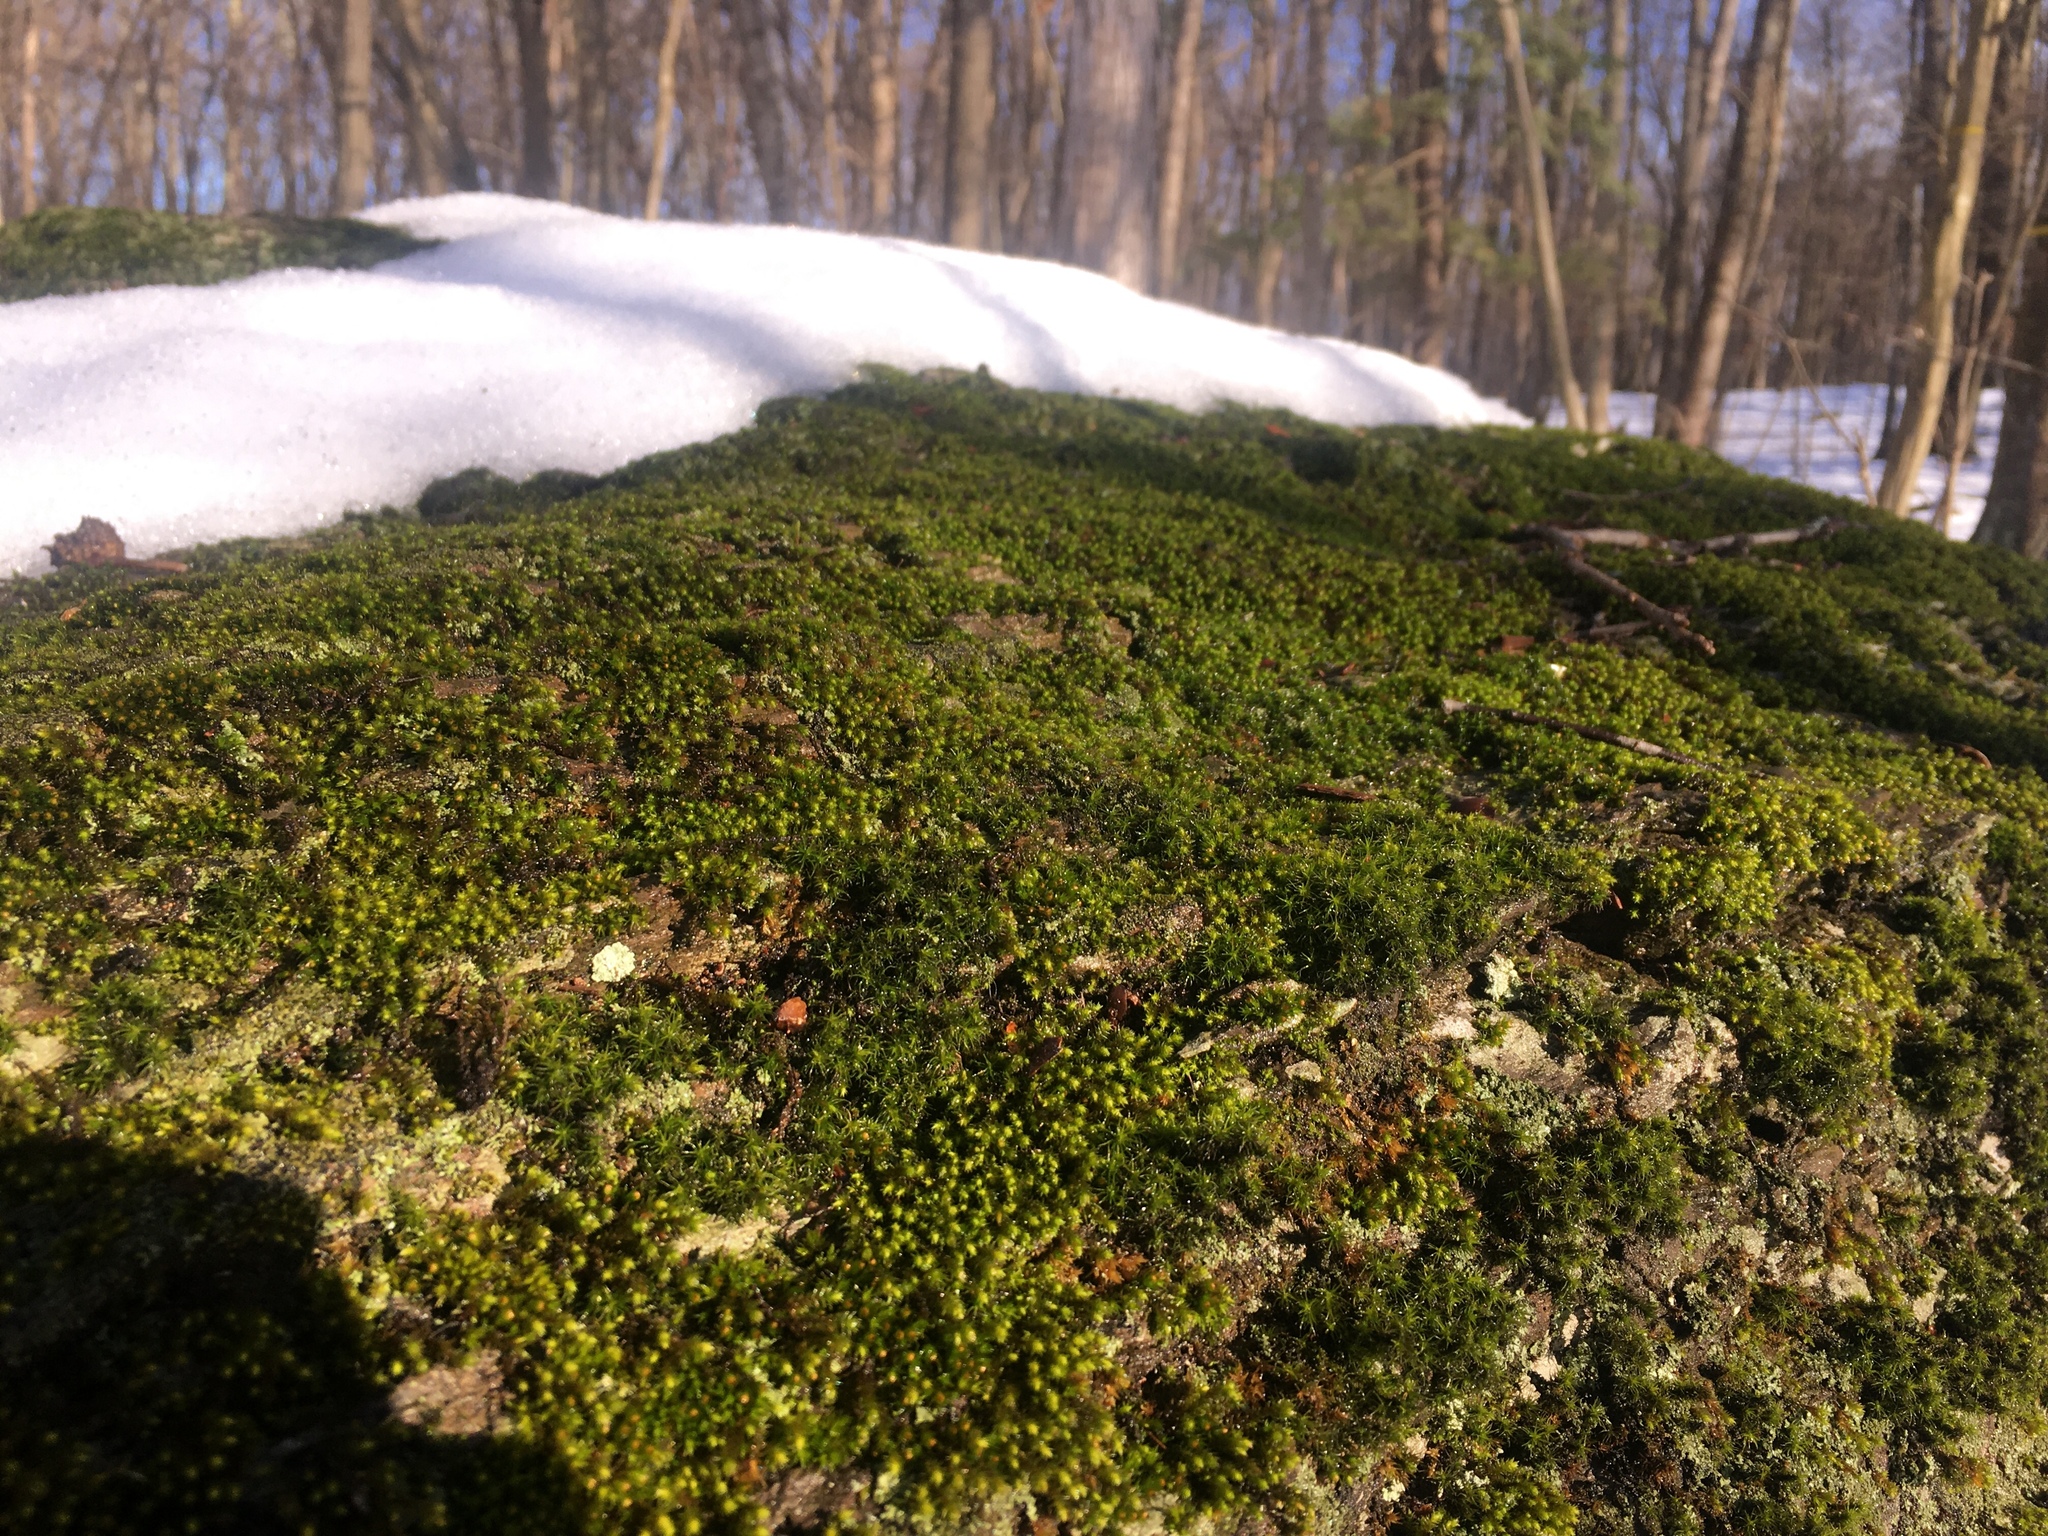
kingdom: Plantae
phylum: Bryophyta
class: Bryopsida
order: Hedwigiales
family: Hedwigiaceae
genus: Hedwigia
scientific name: Hedwigia ciliata
